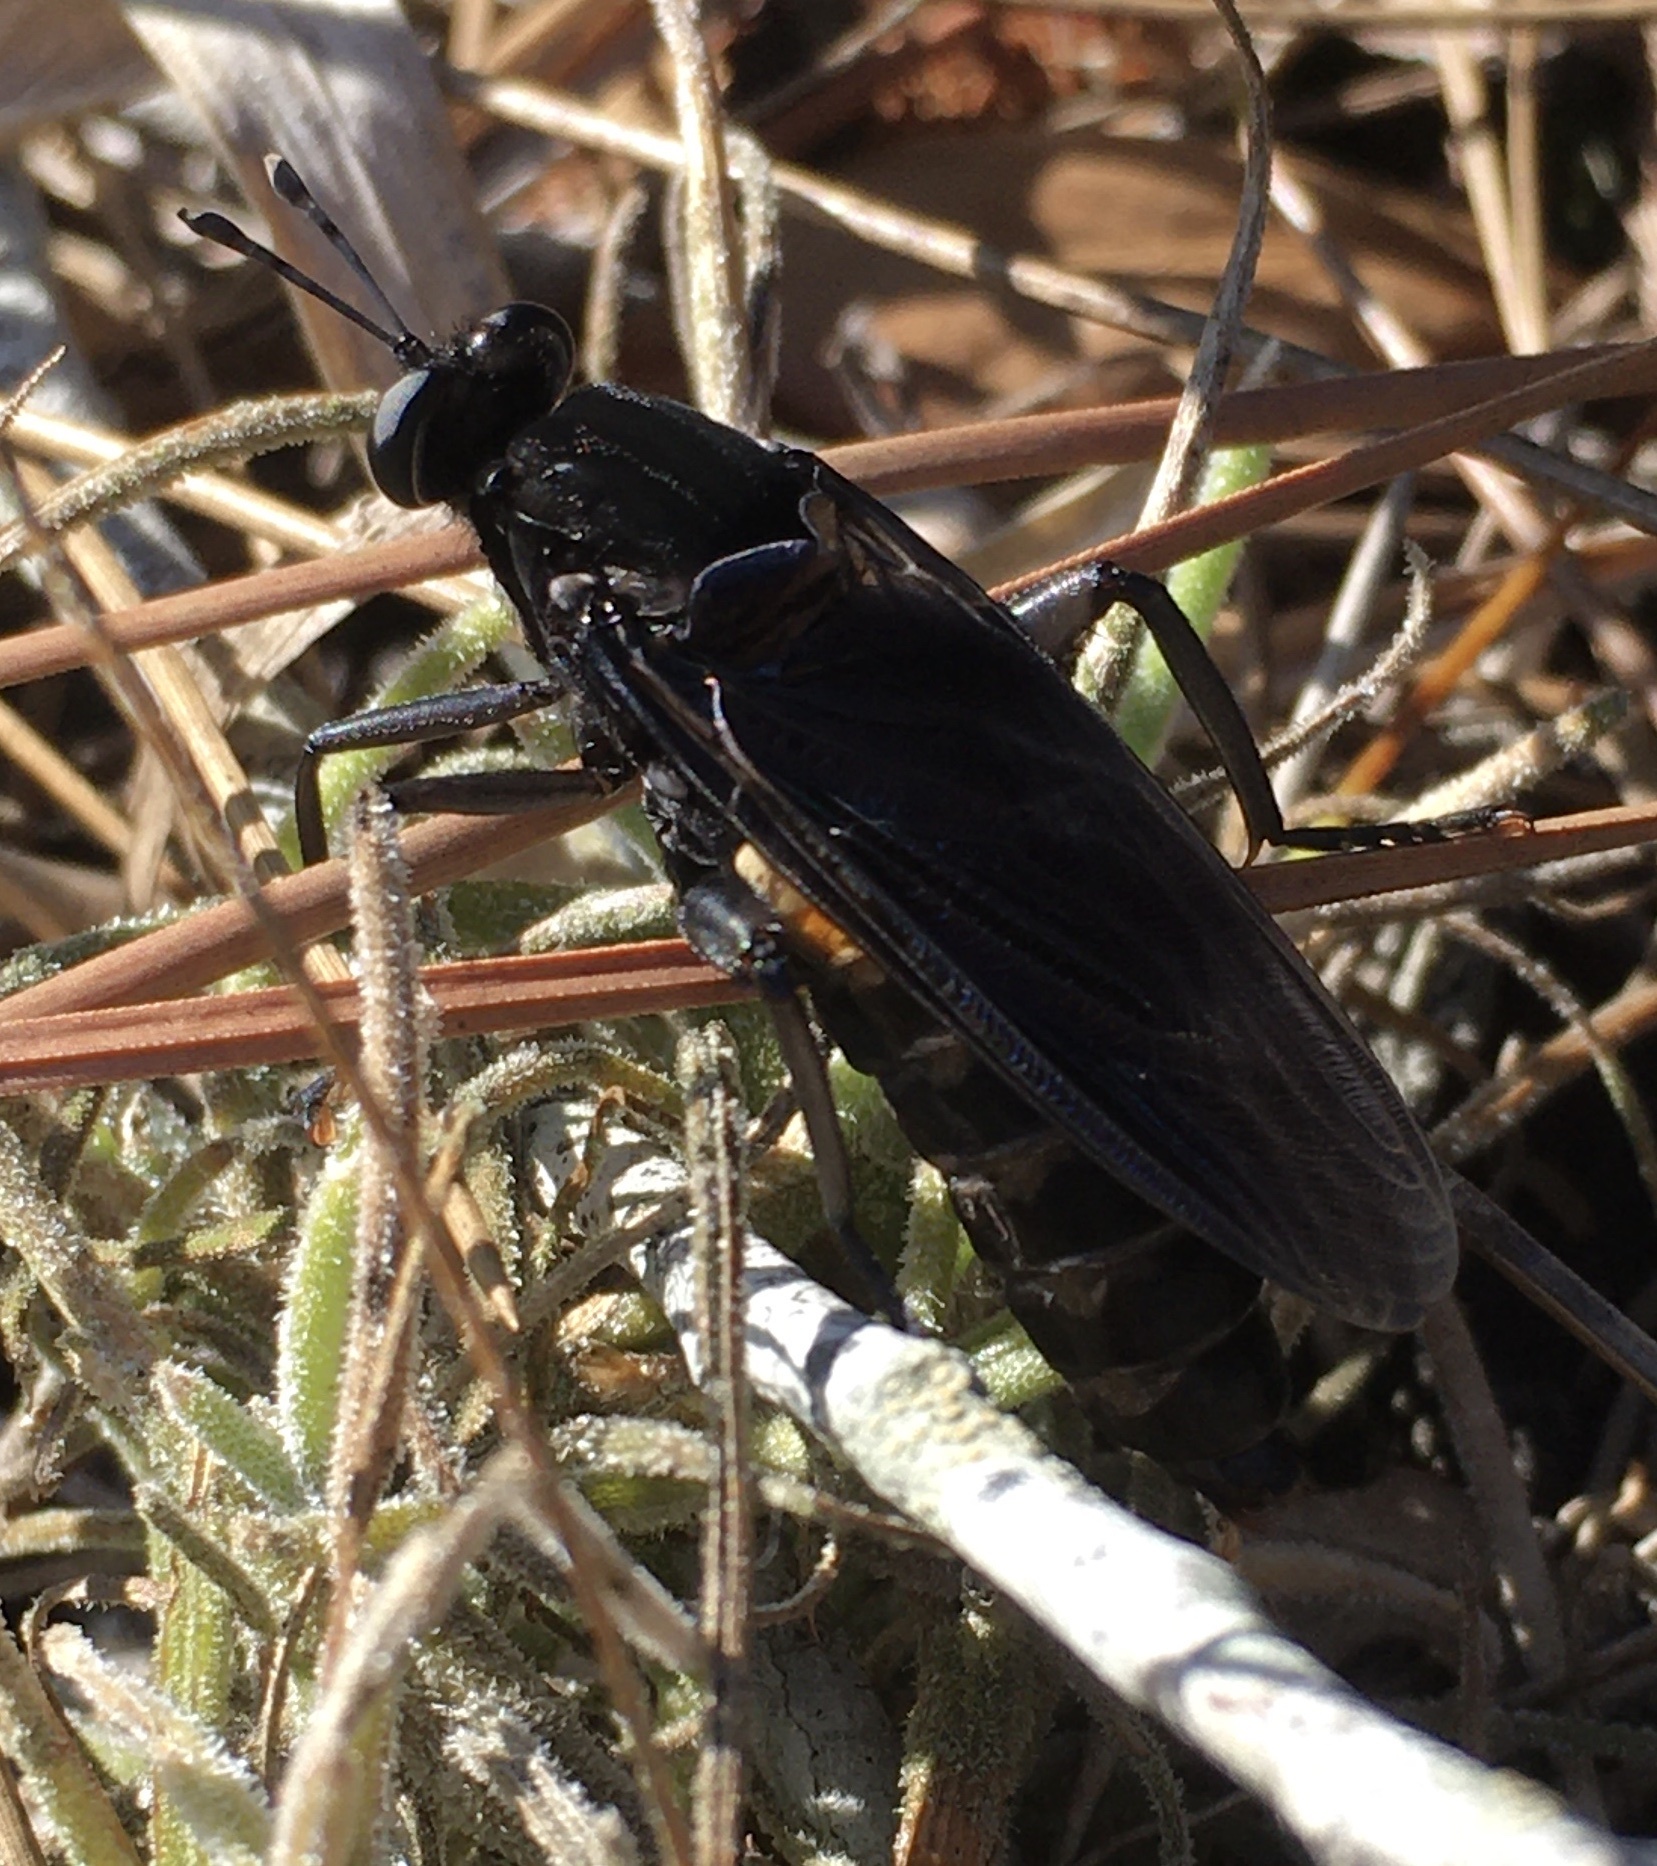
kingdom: Animalia
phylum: Arthropoda
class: Insecta
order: Diptera
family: Mydidae
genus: Mydas
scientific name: Mydas clavatus
